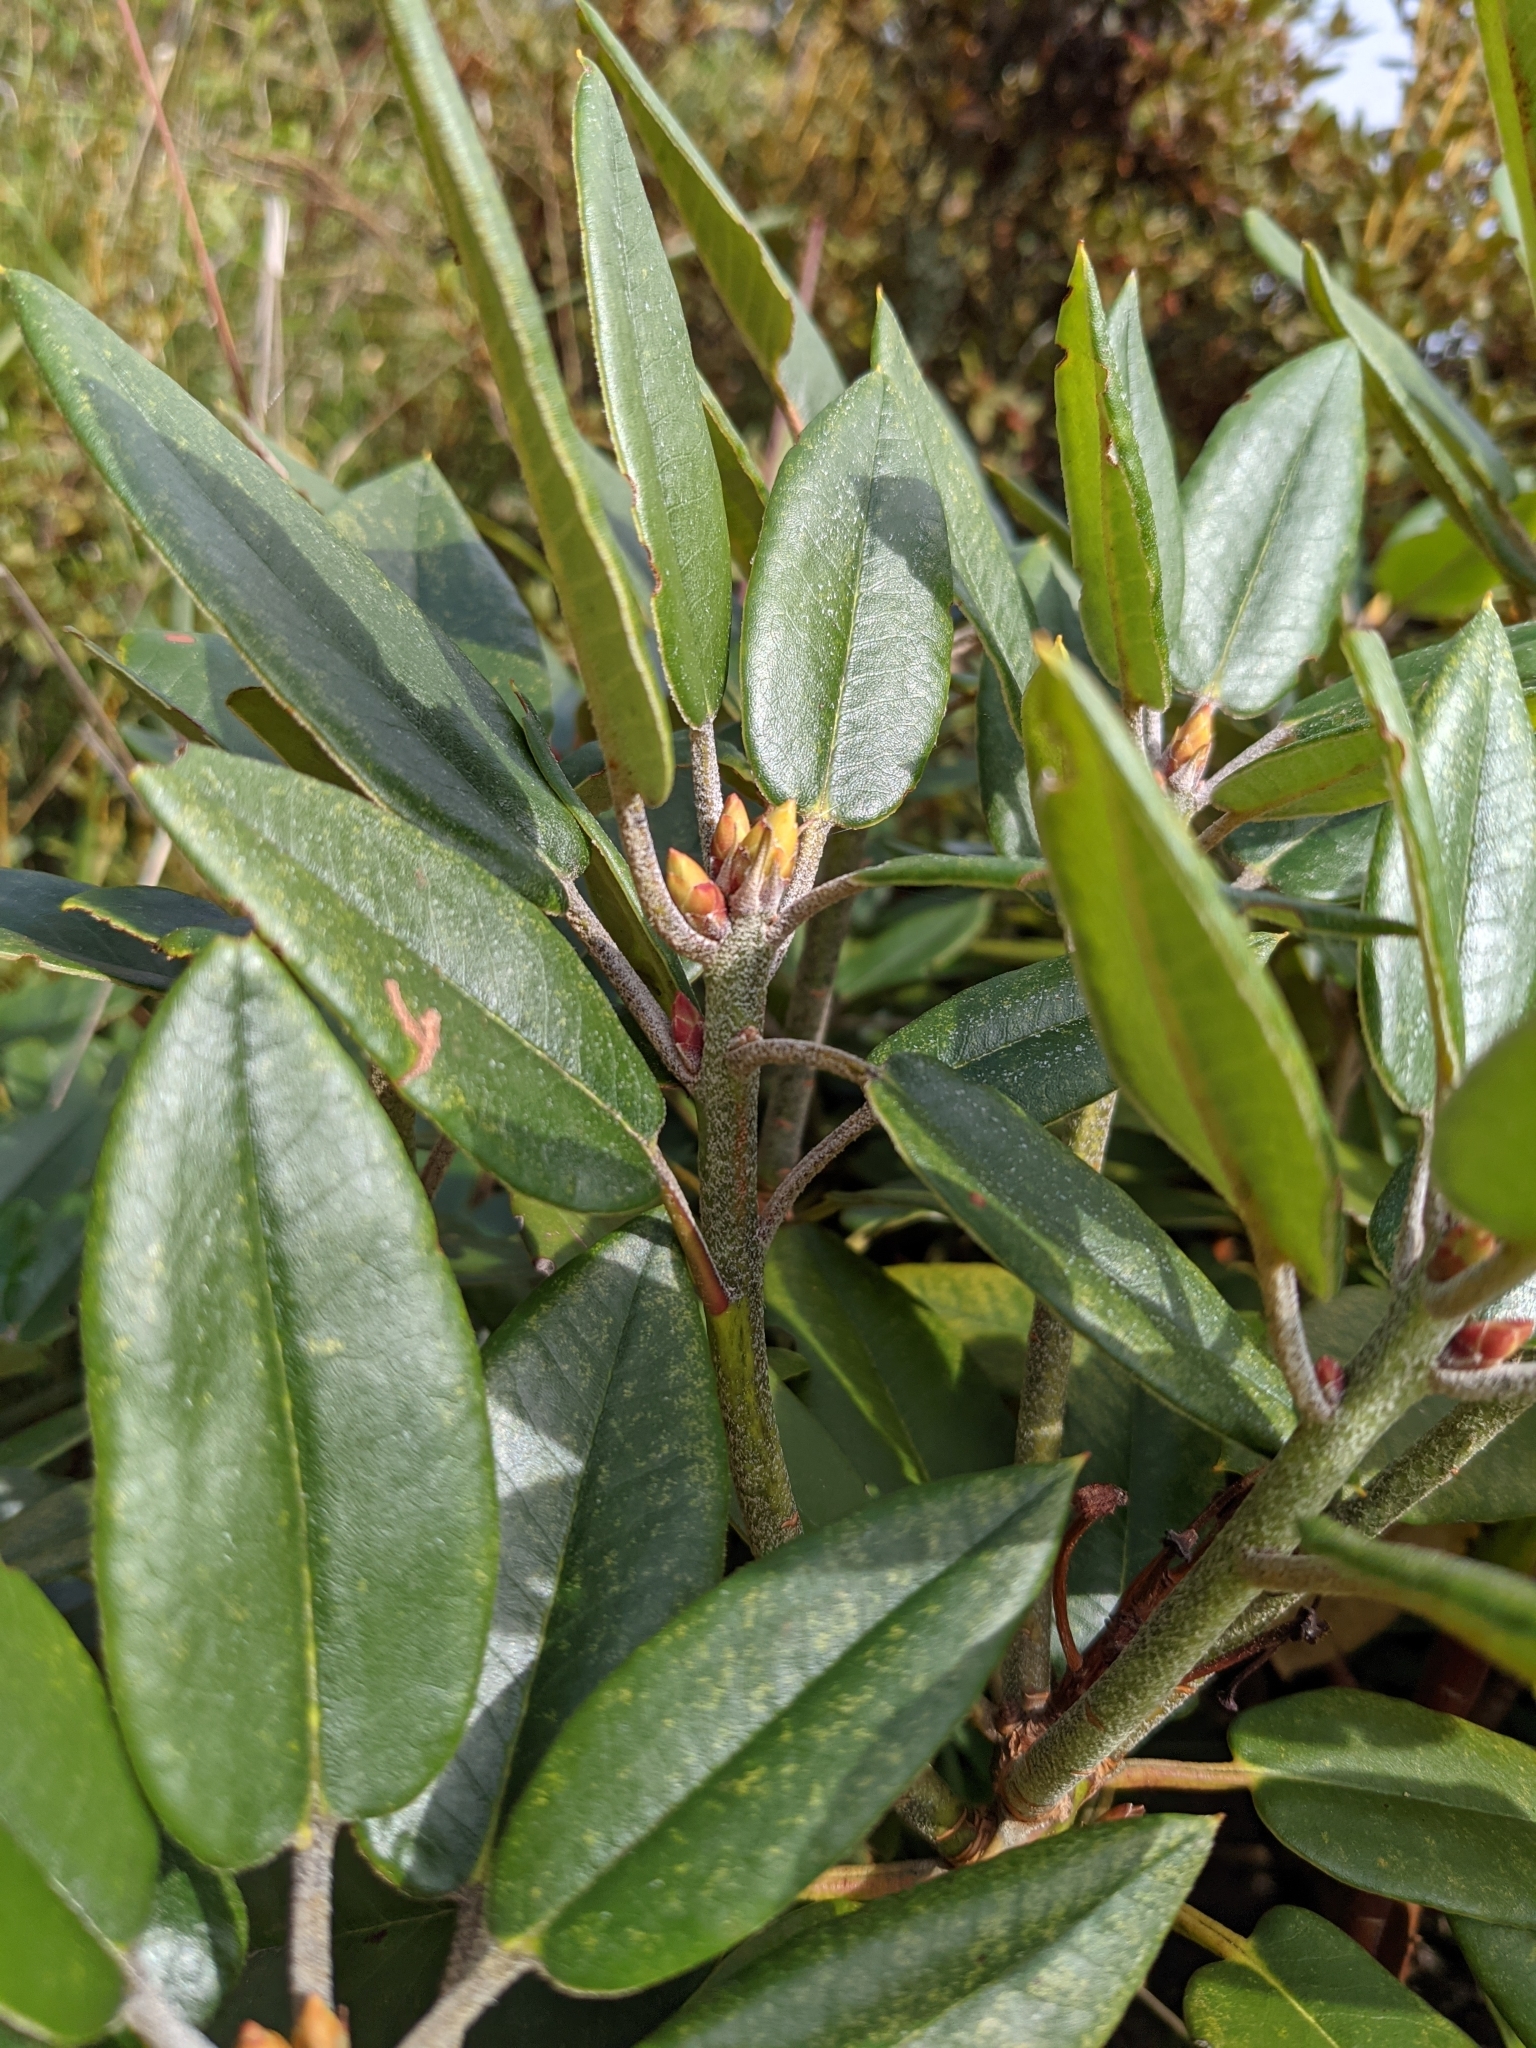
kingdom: Plantae
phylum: Tracheophyta
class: Magnoliopsida
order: Ericales
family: Ericaceae
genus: Rhododendron
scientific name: Rhododendron pseudochrysanthum
